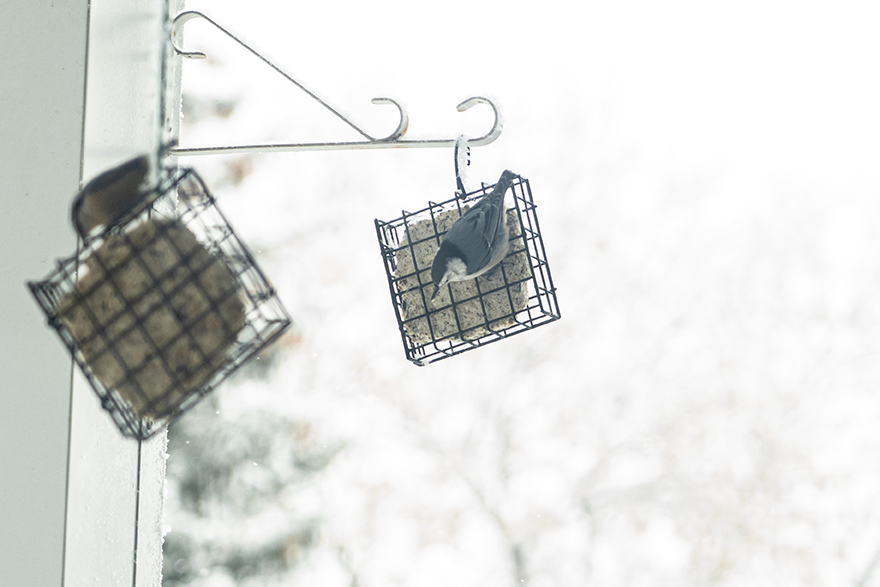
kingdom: Animalia
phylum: Chordata
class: Aves
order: Passeriformes
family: Sittidae
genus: Sitta
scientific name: Sitta carolinensis
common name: White-breasted nuthatch
